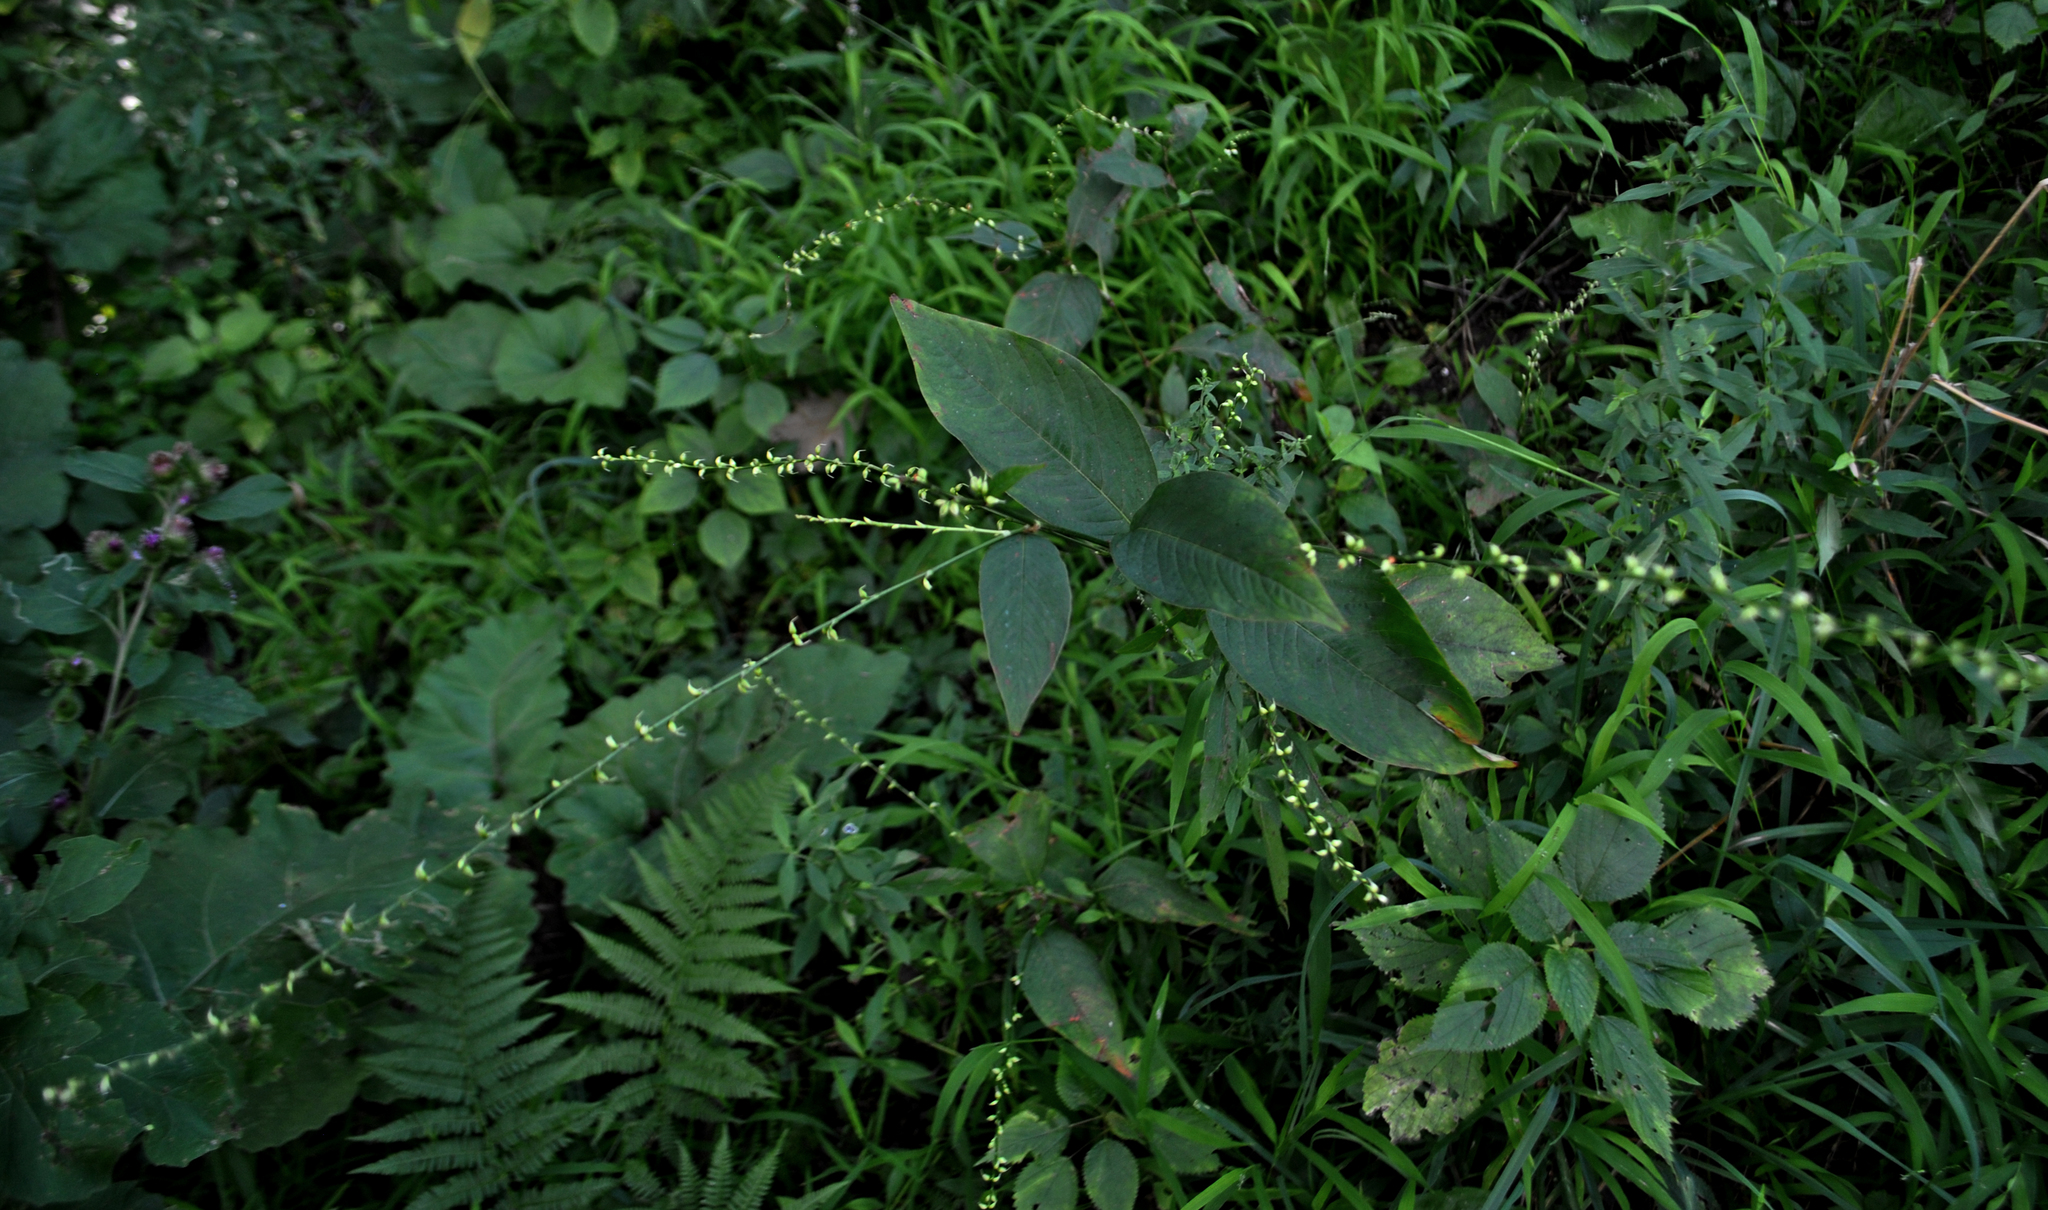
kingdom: Plantae
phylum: Tracheophyta
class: Magnoliopsida
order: Caryophyllales
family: Polygonaceae
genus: Persicaria
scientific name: Persicaria virginiana
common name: Jumpseed
